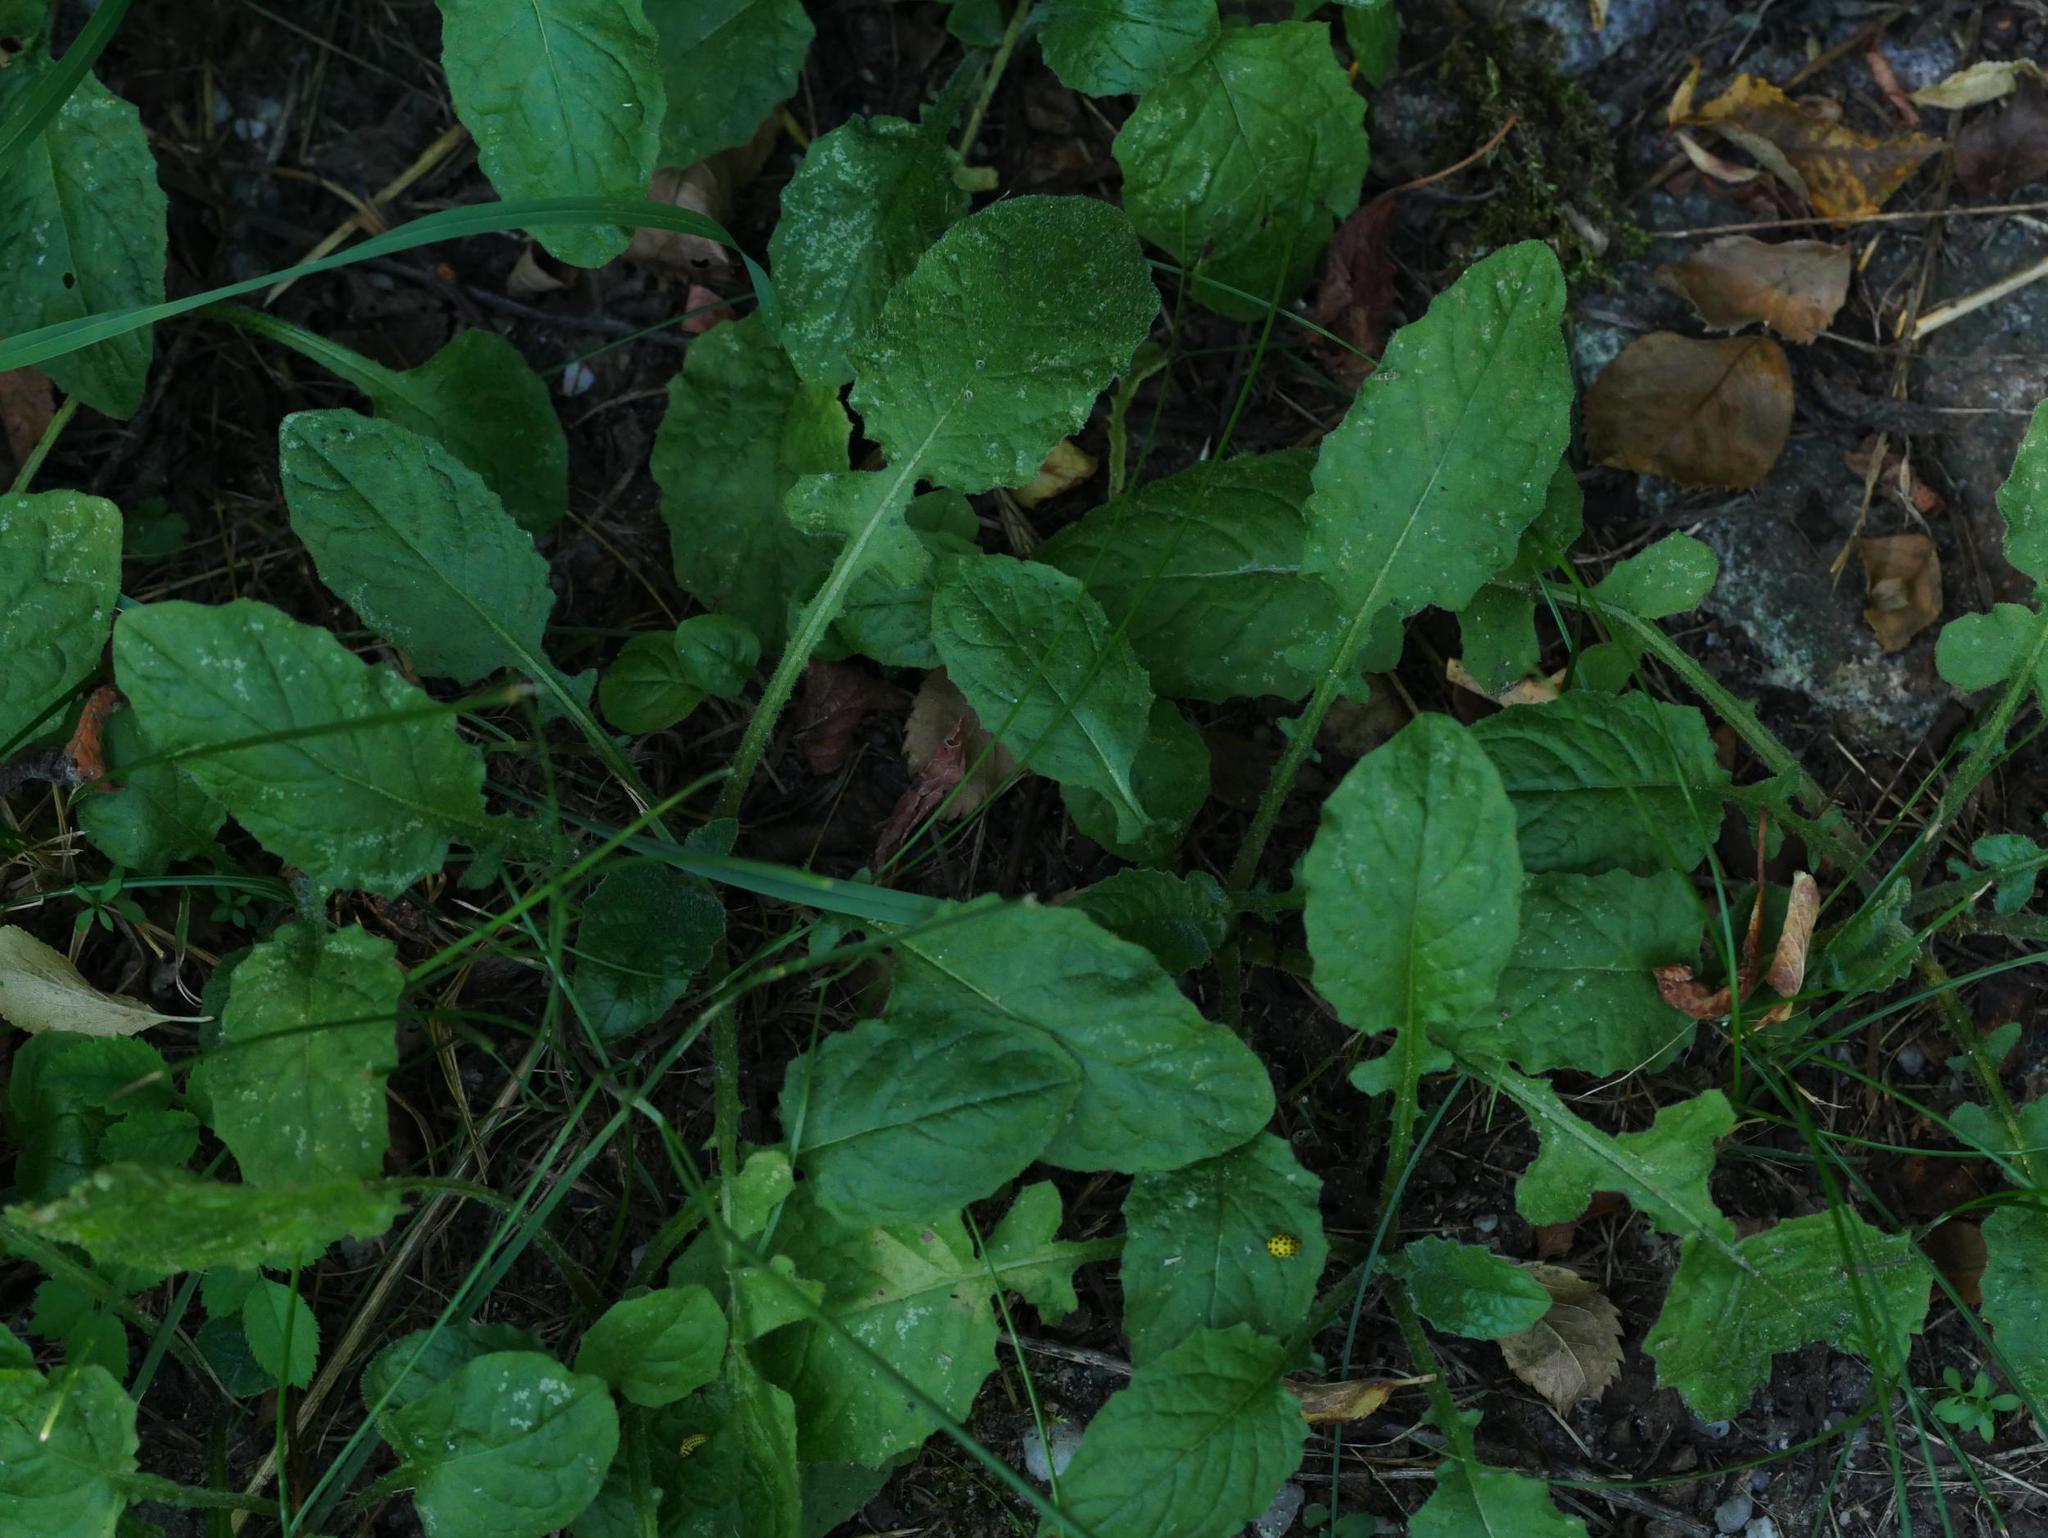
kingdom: Animalia
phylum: Arthropoda
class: Insecta
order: Coleoptera
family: Coccinellidae
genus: Psyllobora
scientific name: Psyllobora vigintiduopunctata
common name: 22-spot ladybird
